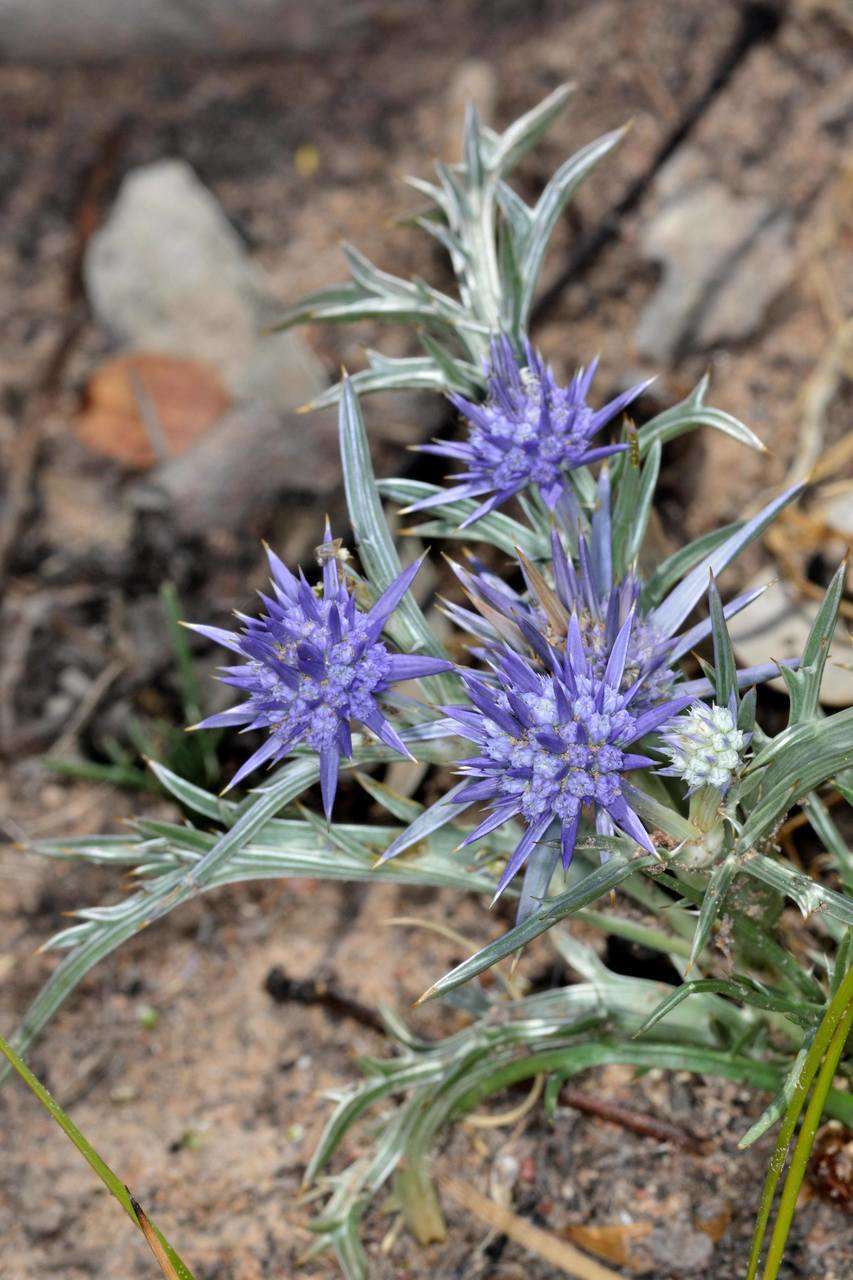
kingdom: Plantae
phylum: Tracheophyta
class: Magnoliopsida
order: Apiales
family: Apiaceae
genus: Eryngium
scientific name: Eryngium ovinum
